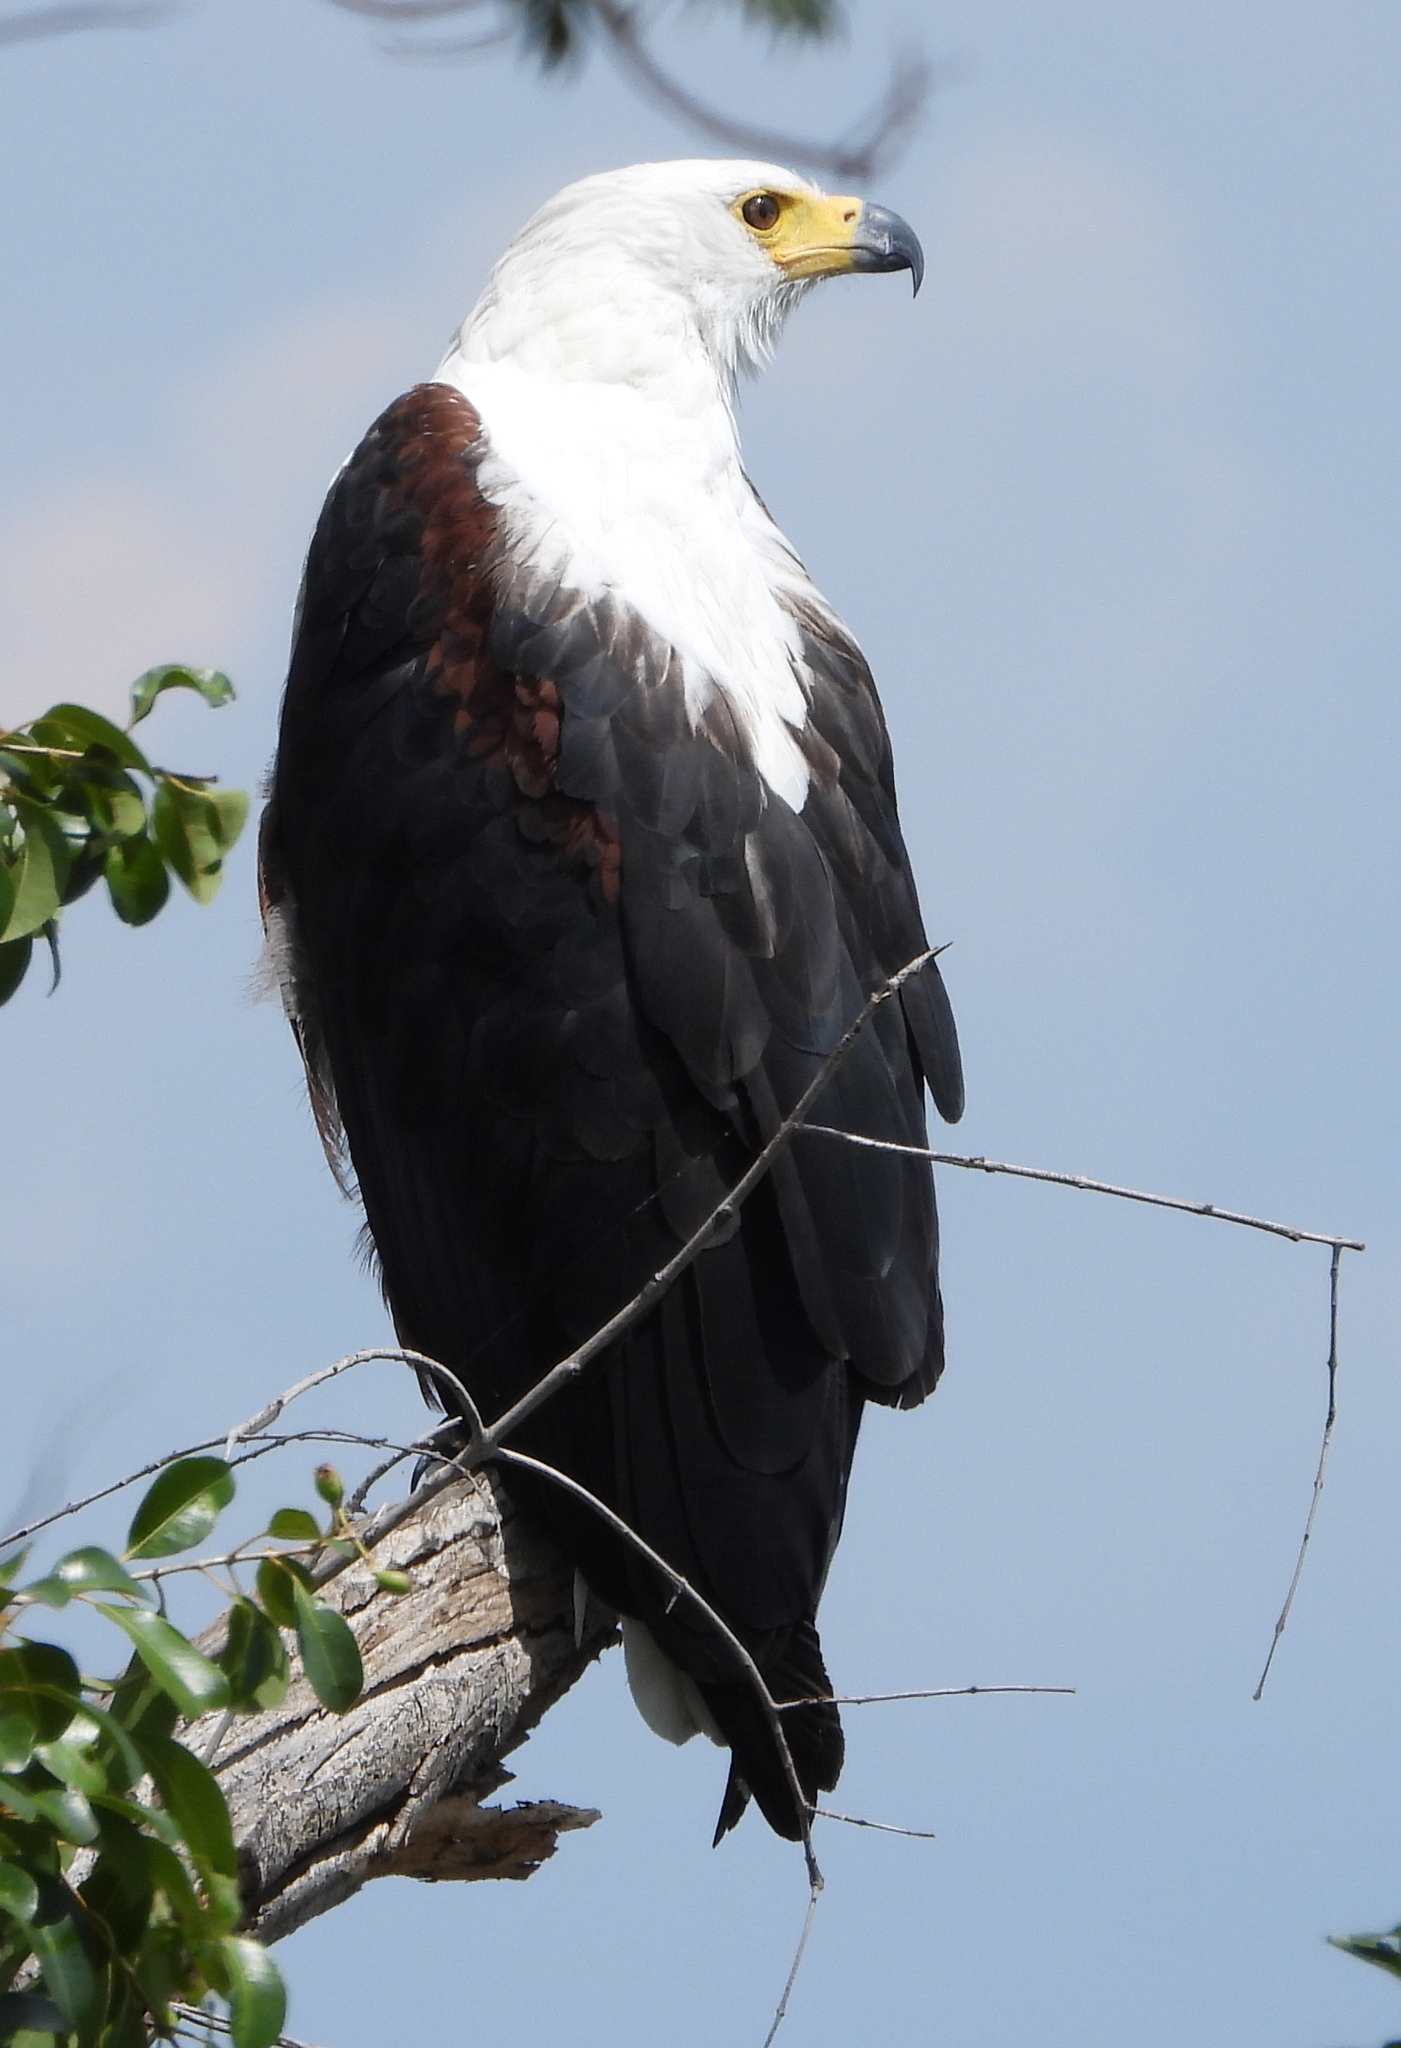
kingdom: Animalia
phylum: Chordata
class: Aves
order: Accipitriformes
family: Accipitridae
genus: Haliaeetus
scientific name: Haliaeetus vocifer
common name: African fish eagle
